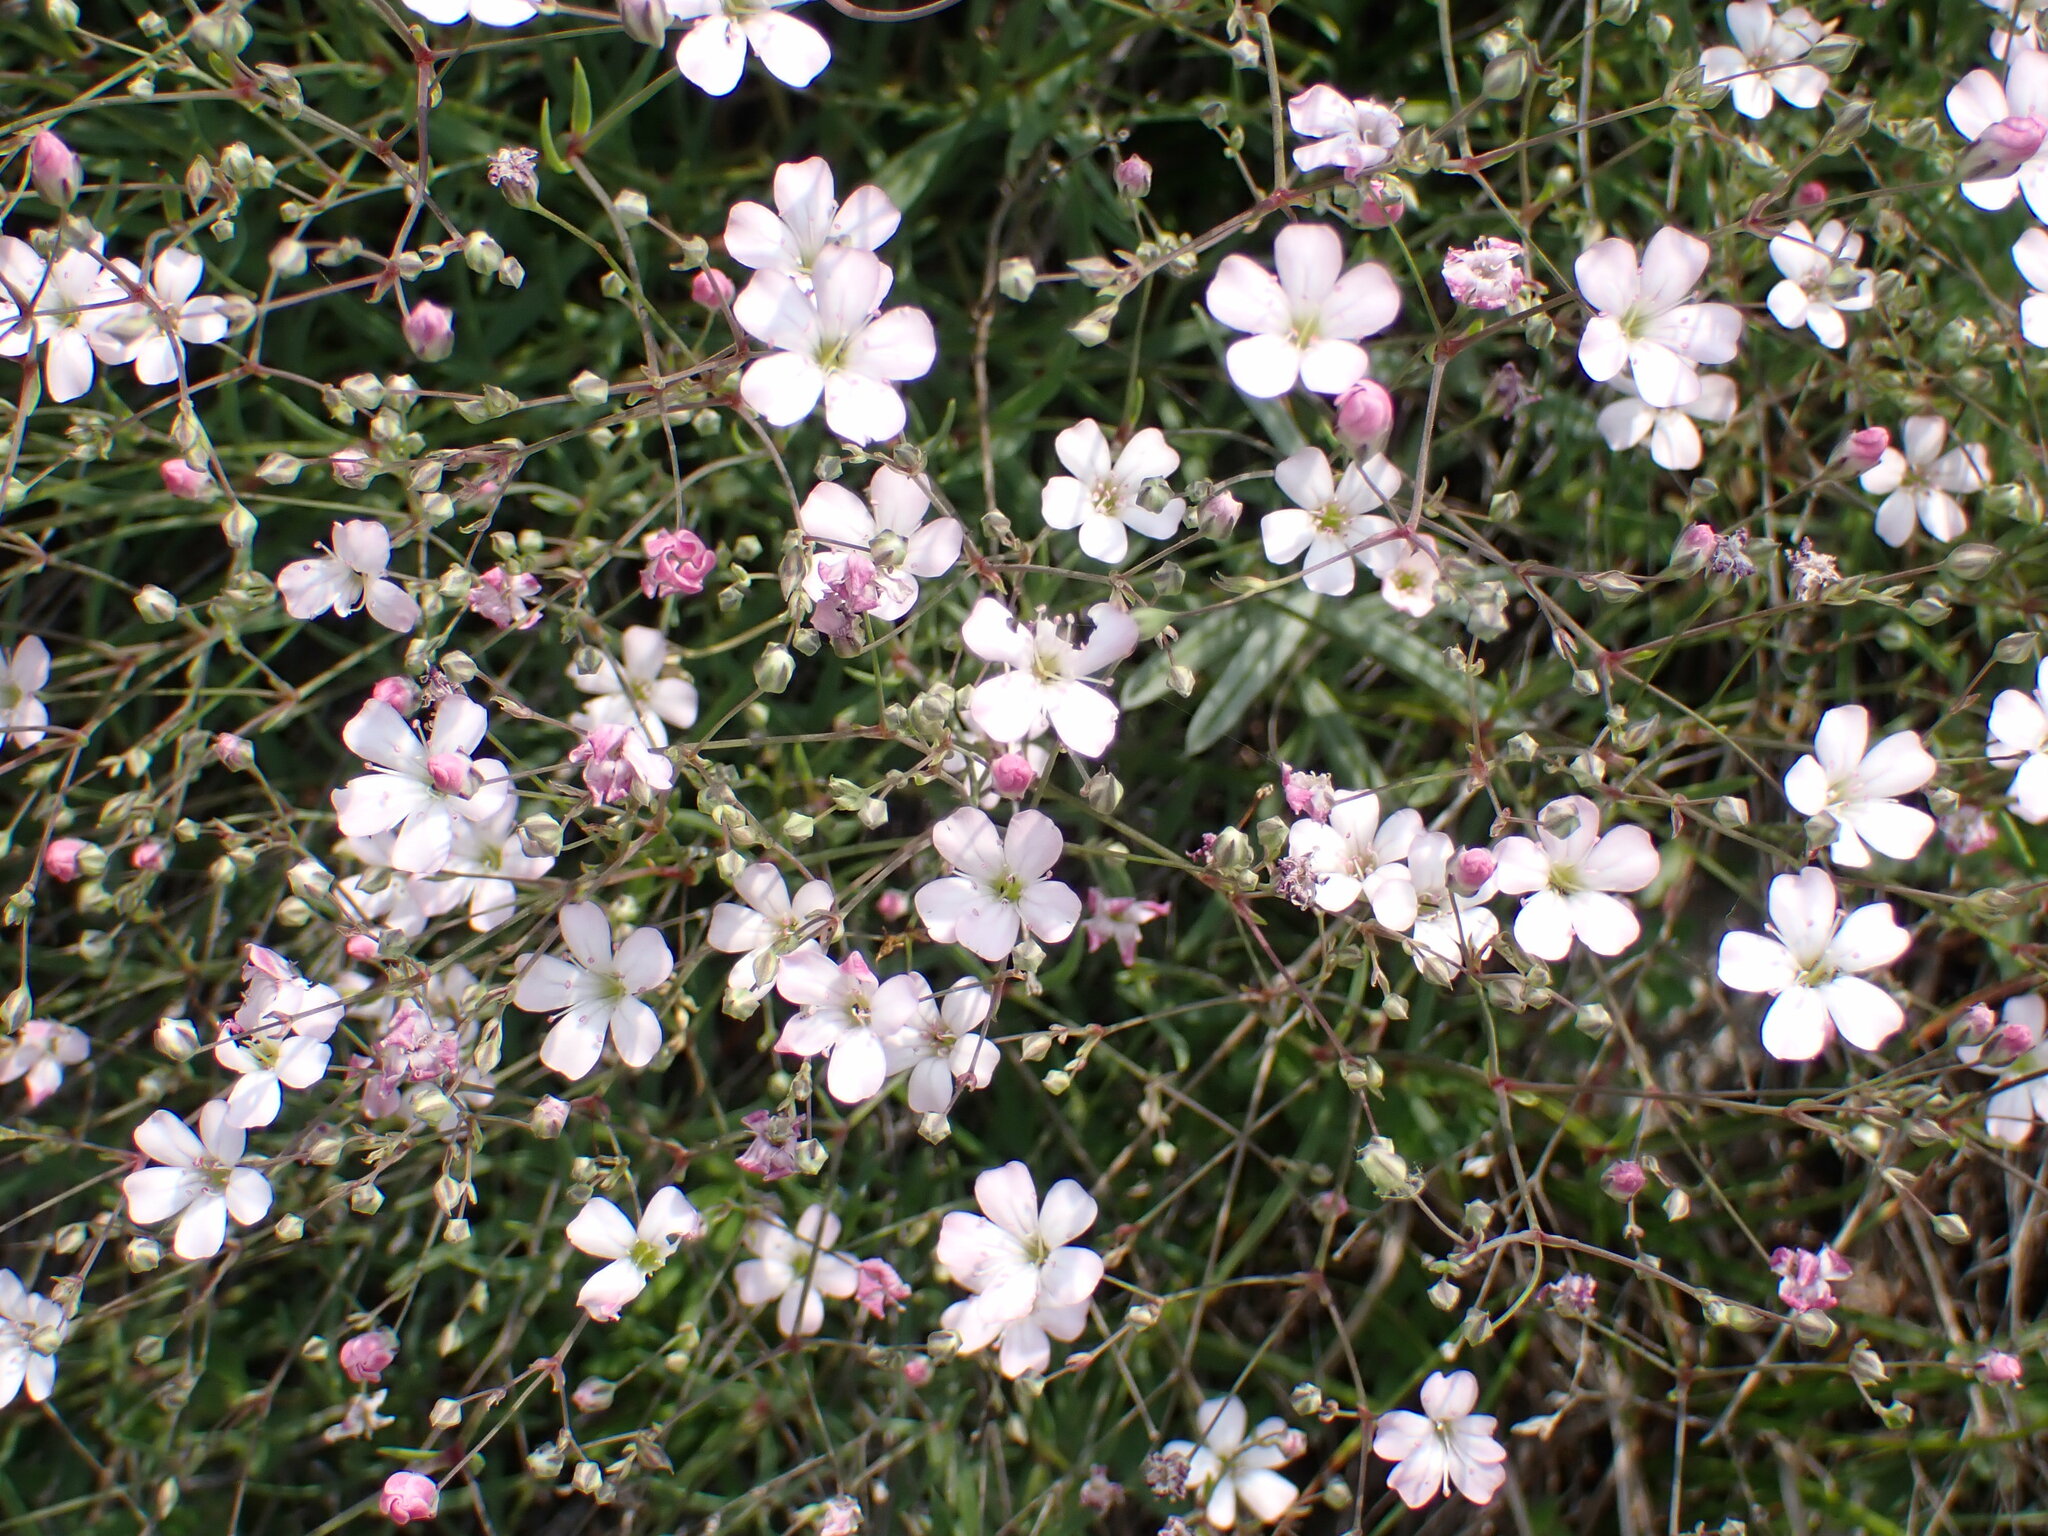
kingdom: Plantae
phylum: Tracheophyta
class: Magnoliopsida
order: Caryophyllales
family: Caryophyllaceae
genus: Gypsophila
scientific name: Gypsophila repens
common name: Creeping baby's-breath
